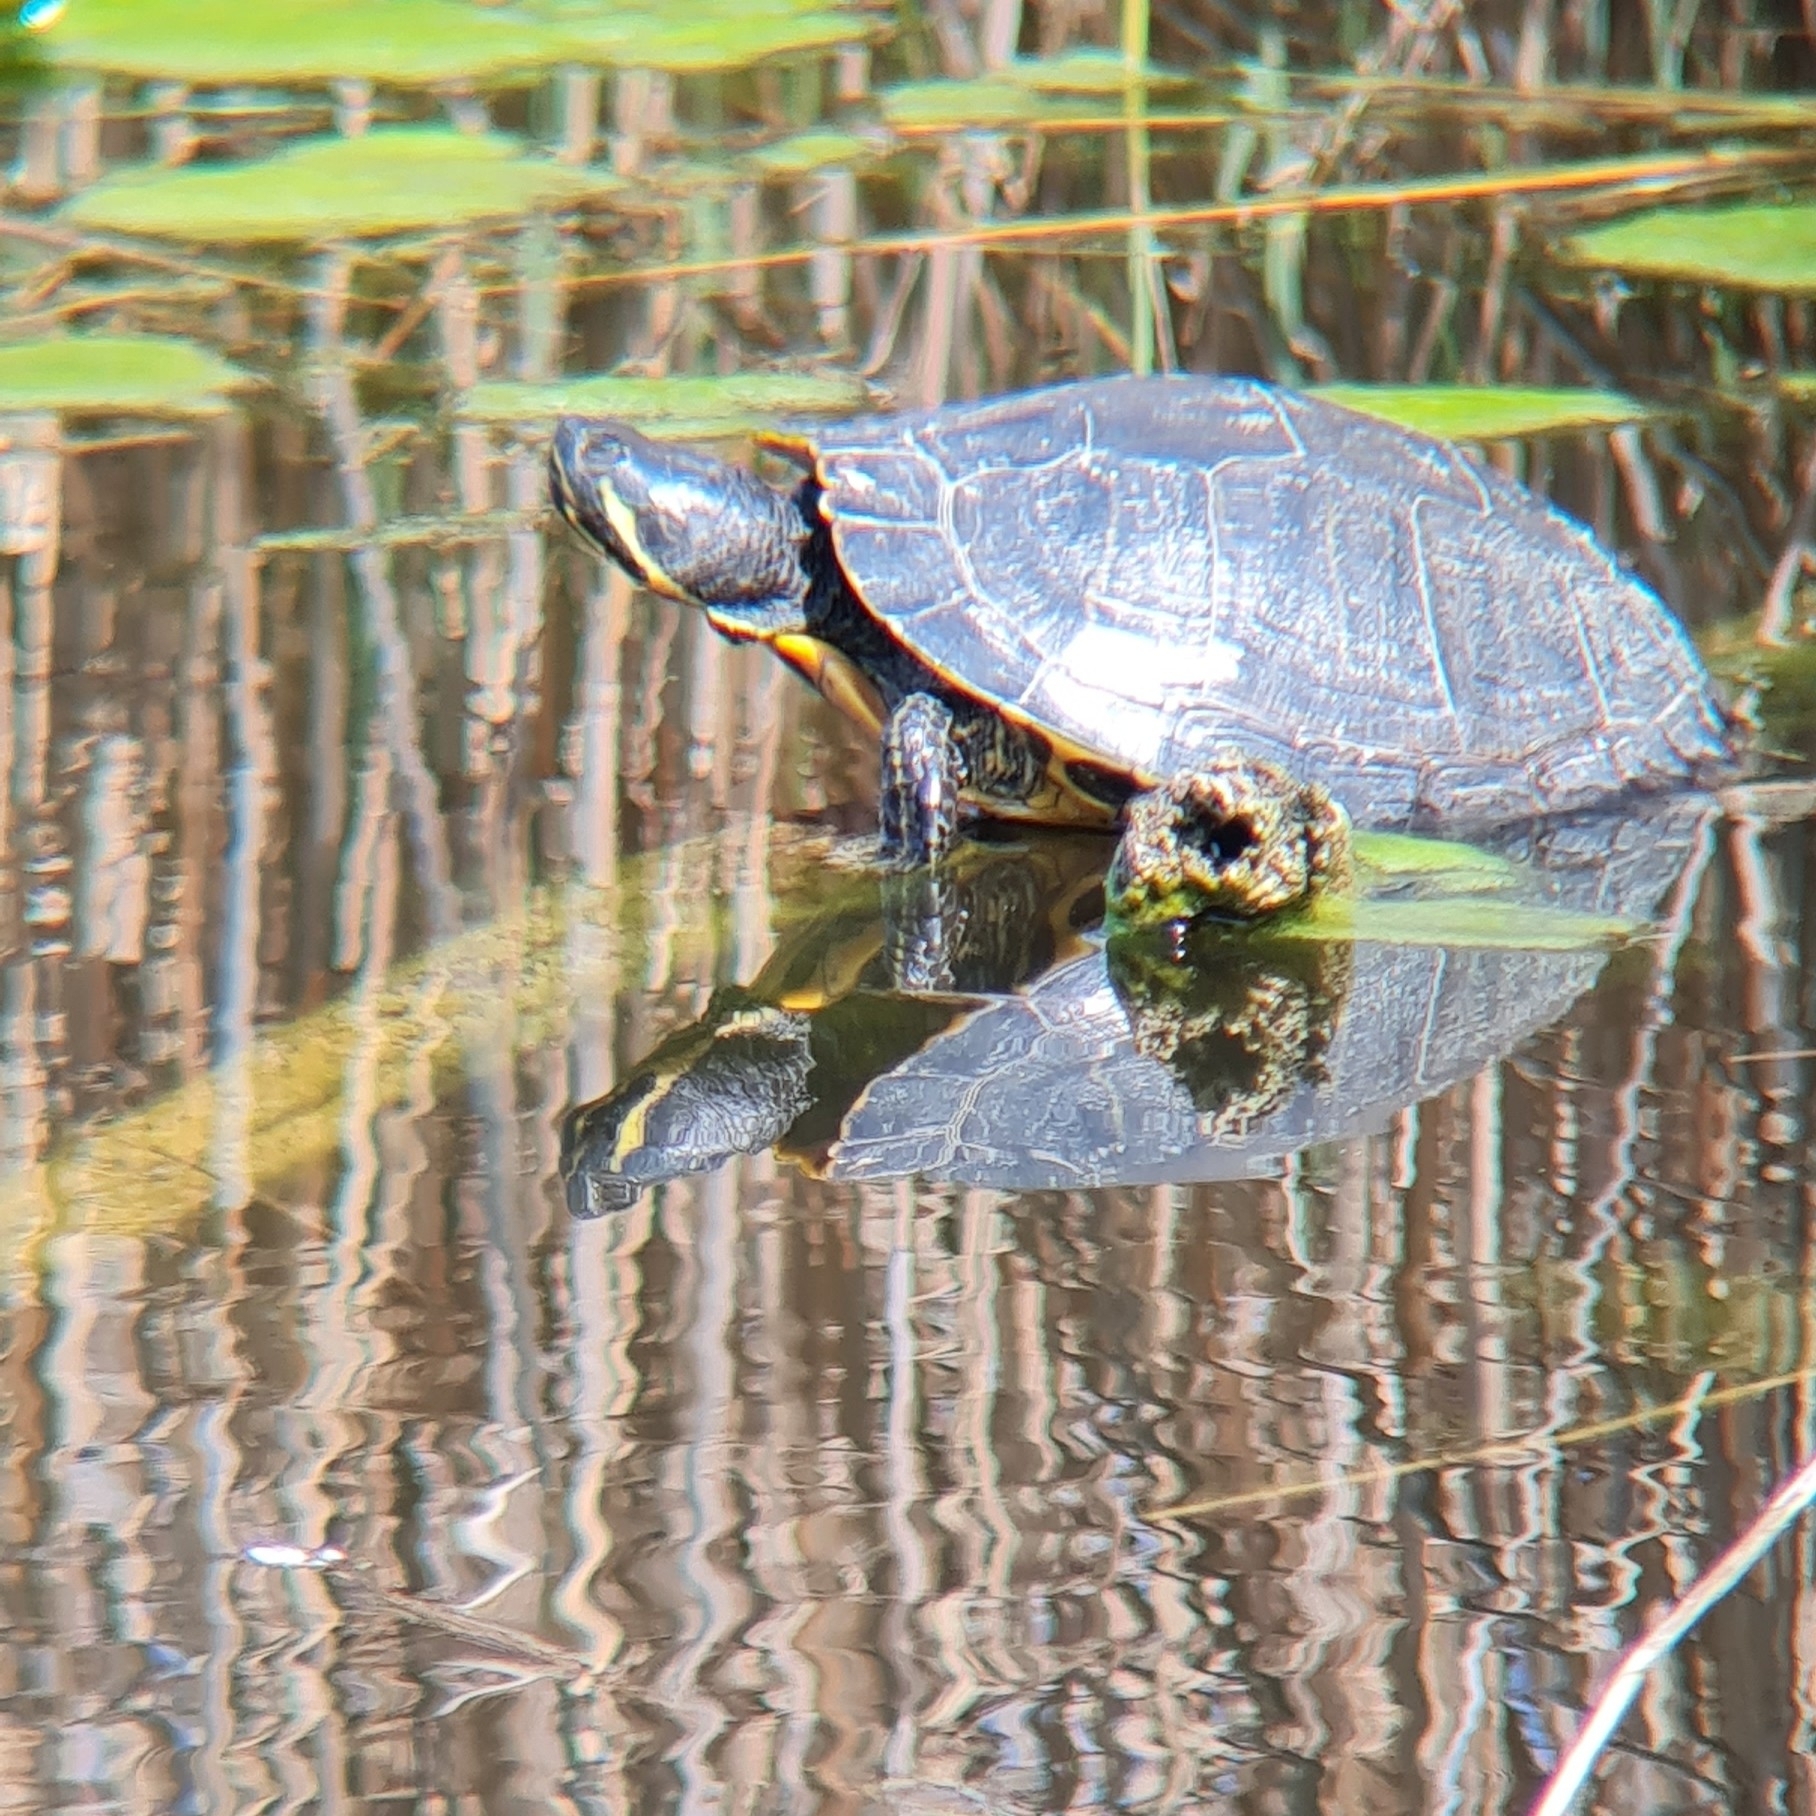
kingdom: Animalia
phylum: Chordata
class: Testudines
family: Emydidae
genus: Trachemys
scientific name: Trachemys scripta
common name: Slider
